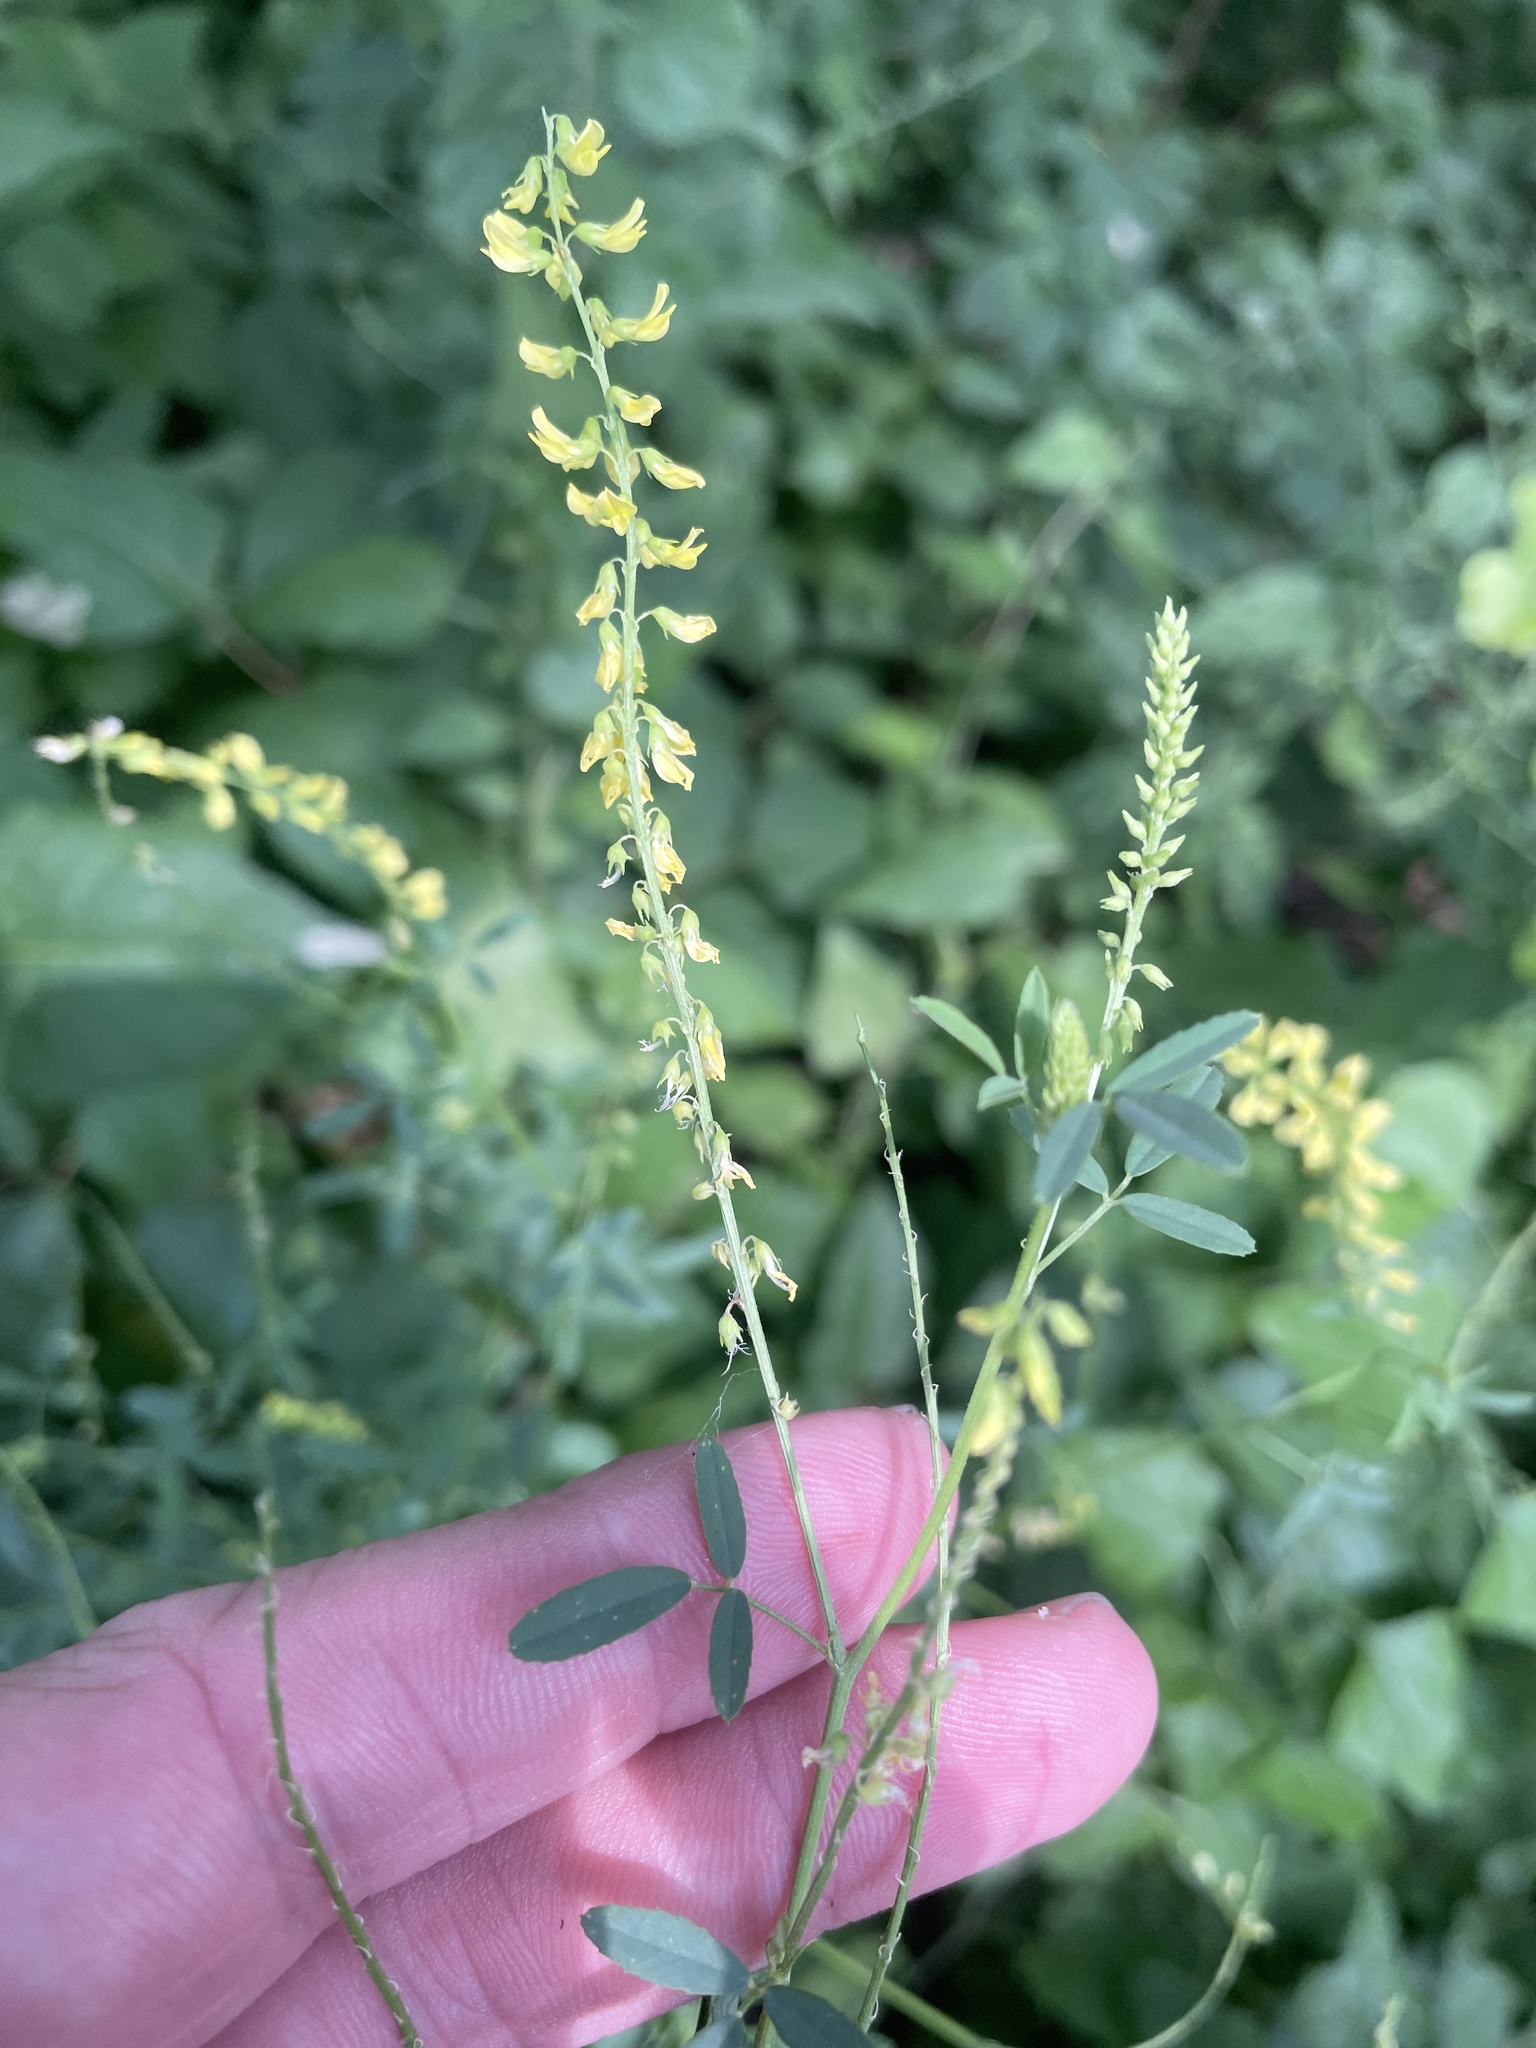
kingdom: Plantae
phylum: Tracheophyta
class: Magnoliopsida
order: Fabales
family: Fabaceae
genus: Melilotus
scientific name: Melilotus officinalis
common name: Sweetclover
